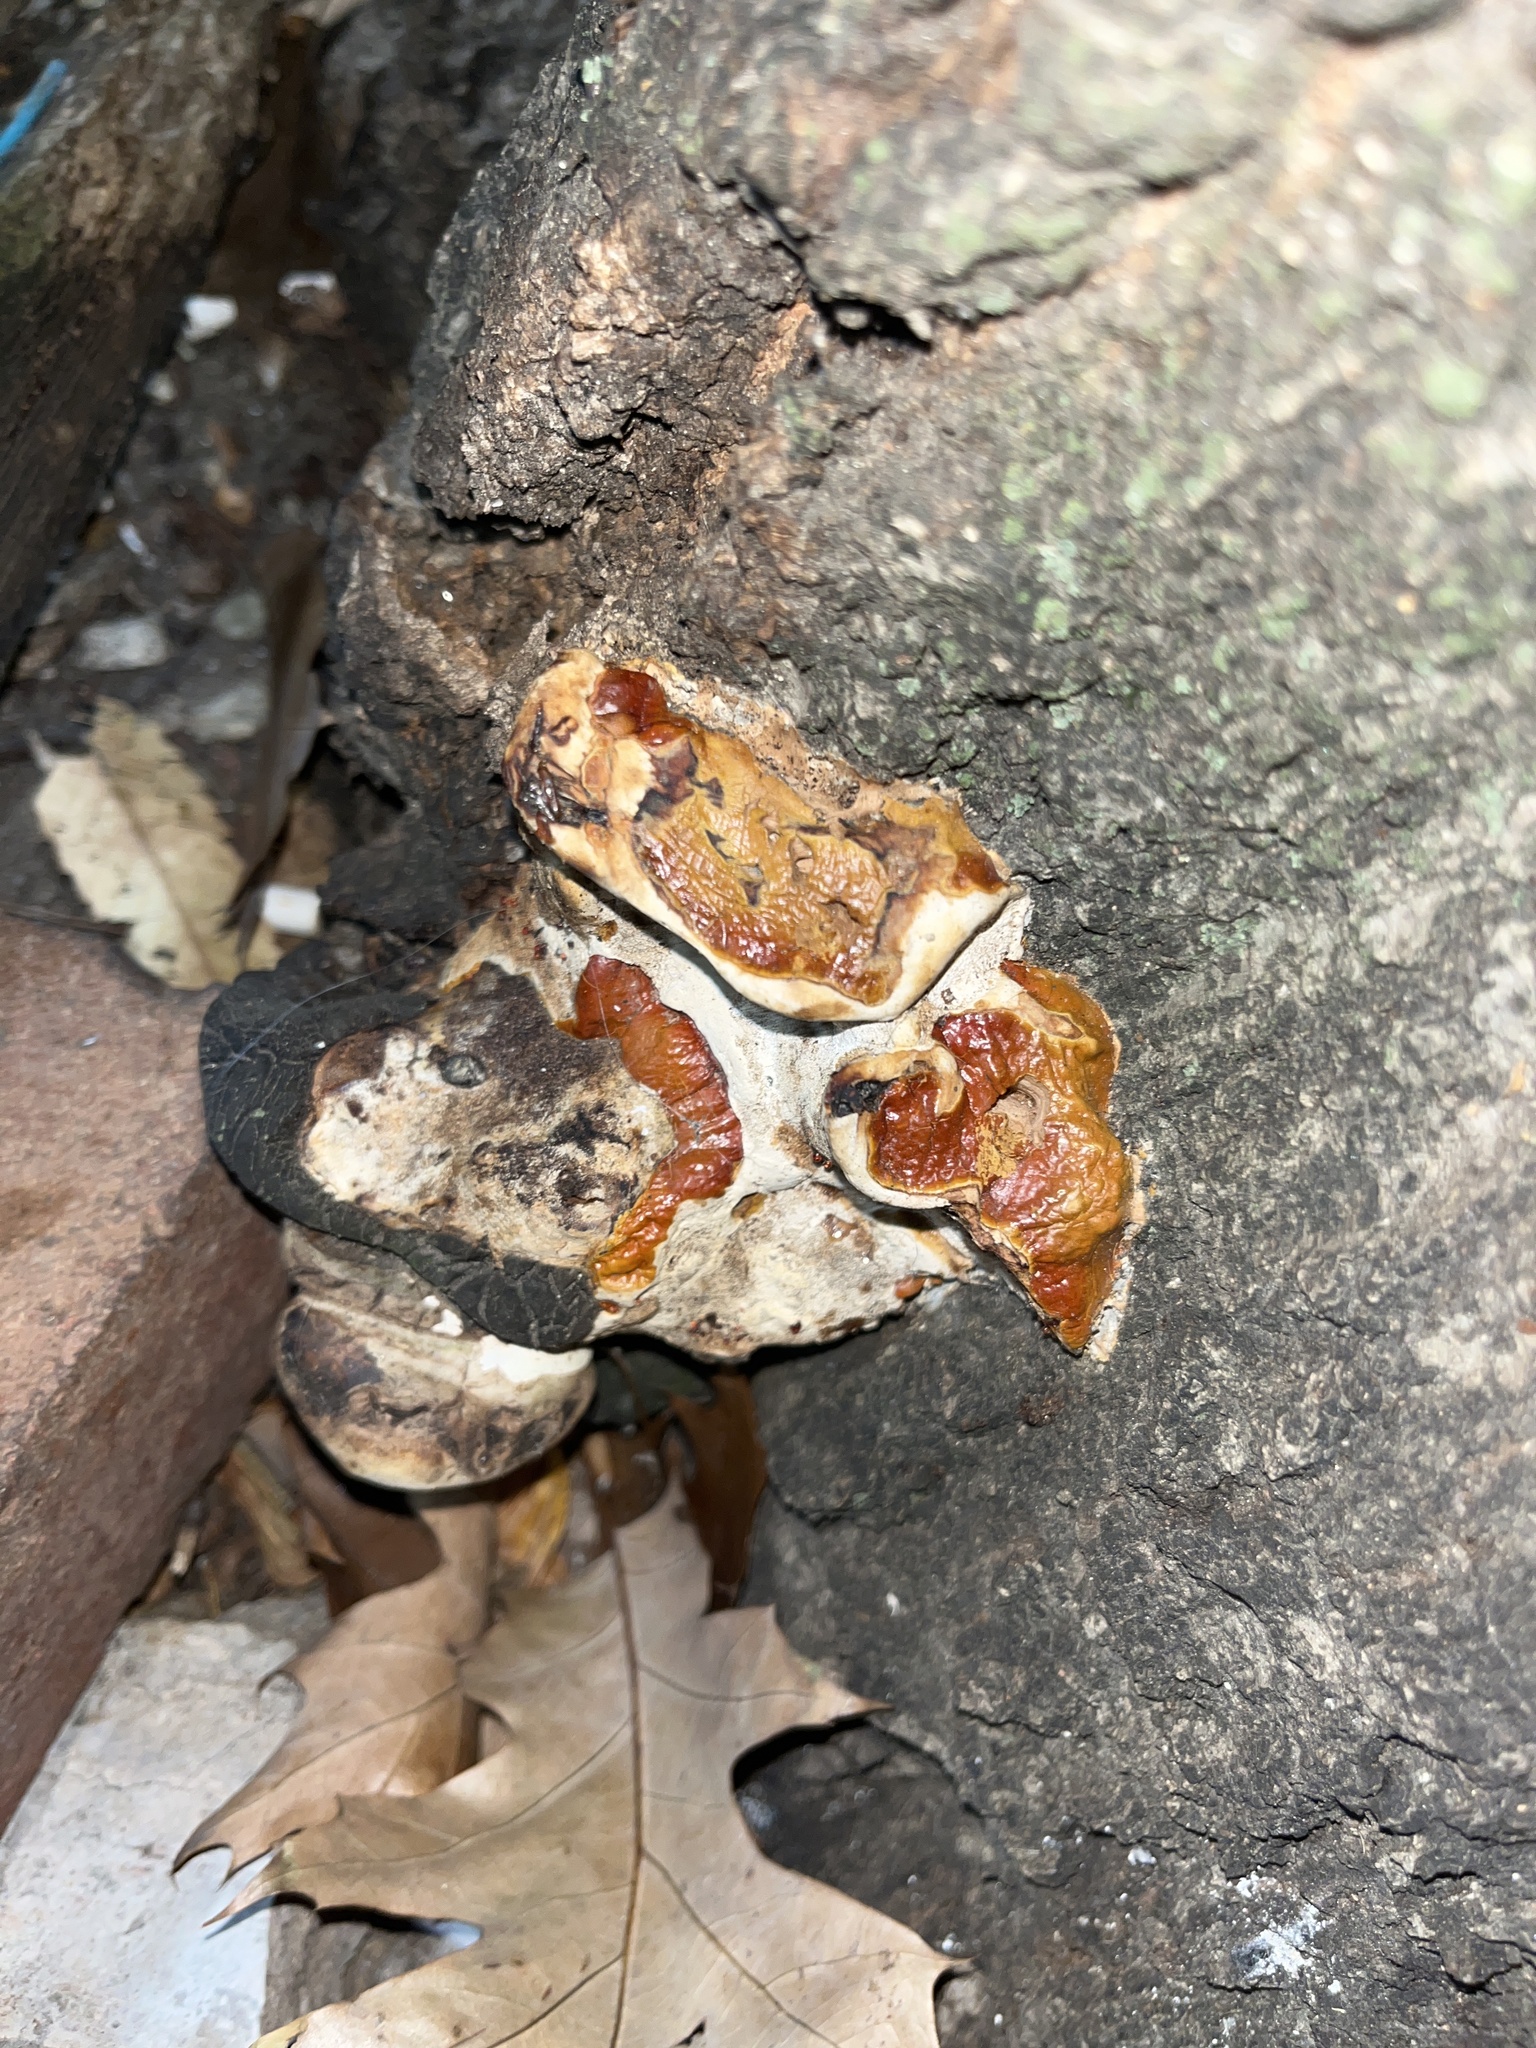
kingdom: Fungi
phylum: Basidiomycota
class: Agaricomycetes
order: Polyporales
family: Polyporaceae
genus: Ganoderma
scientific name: Ganoderma resinaceum
